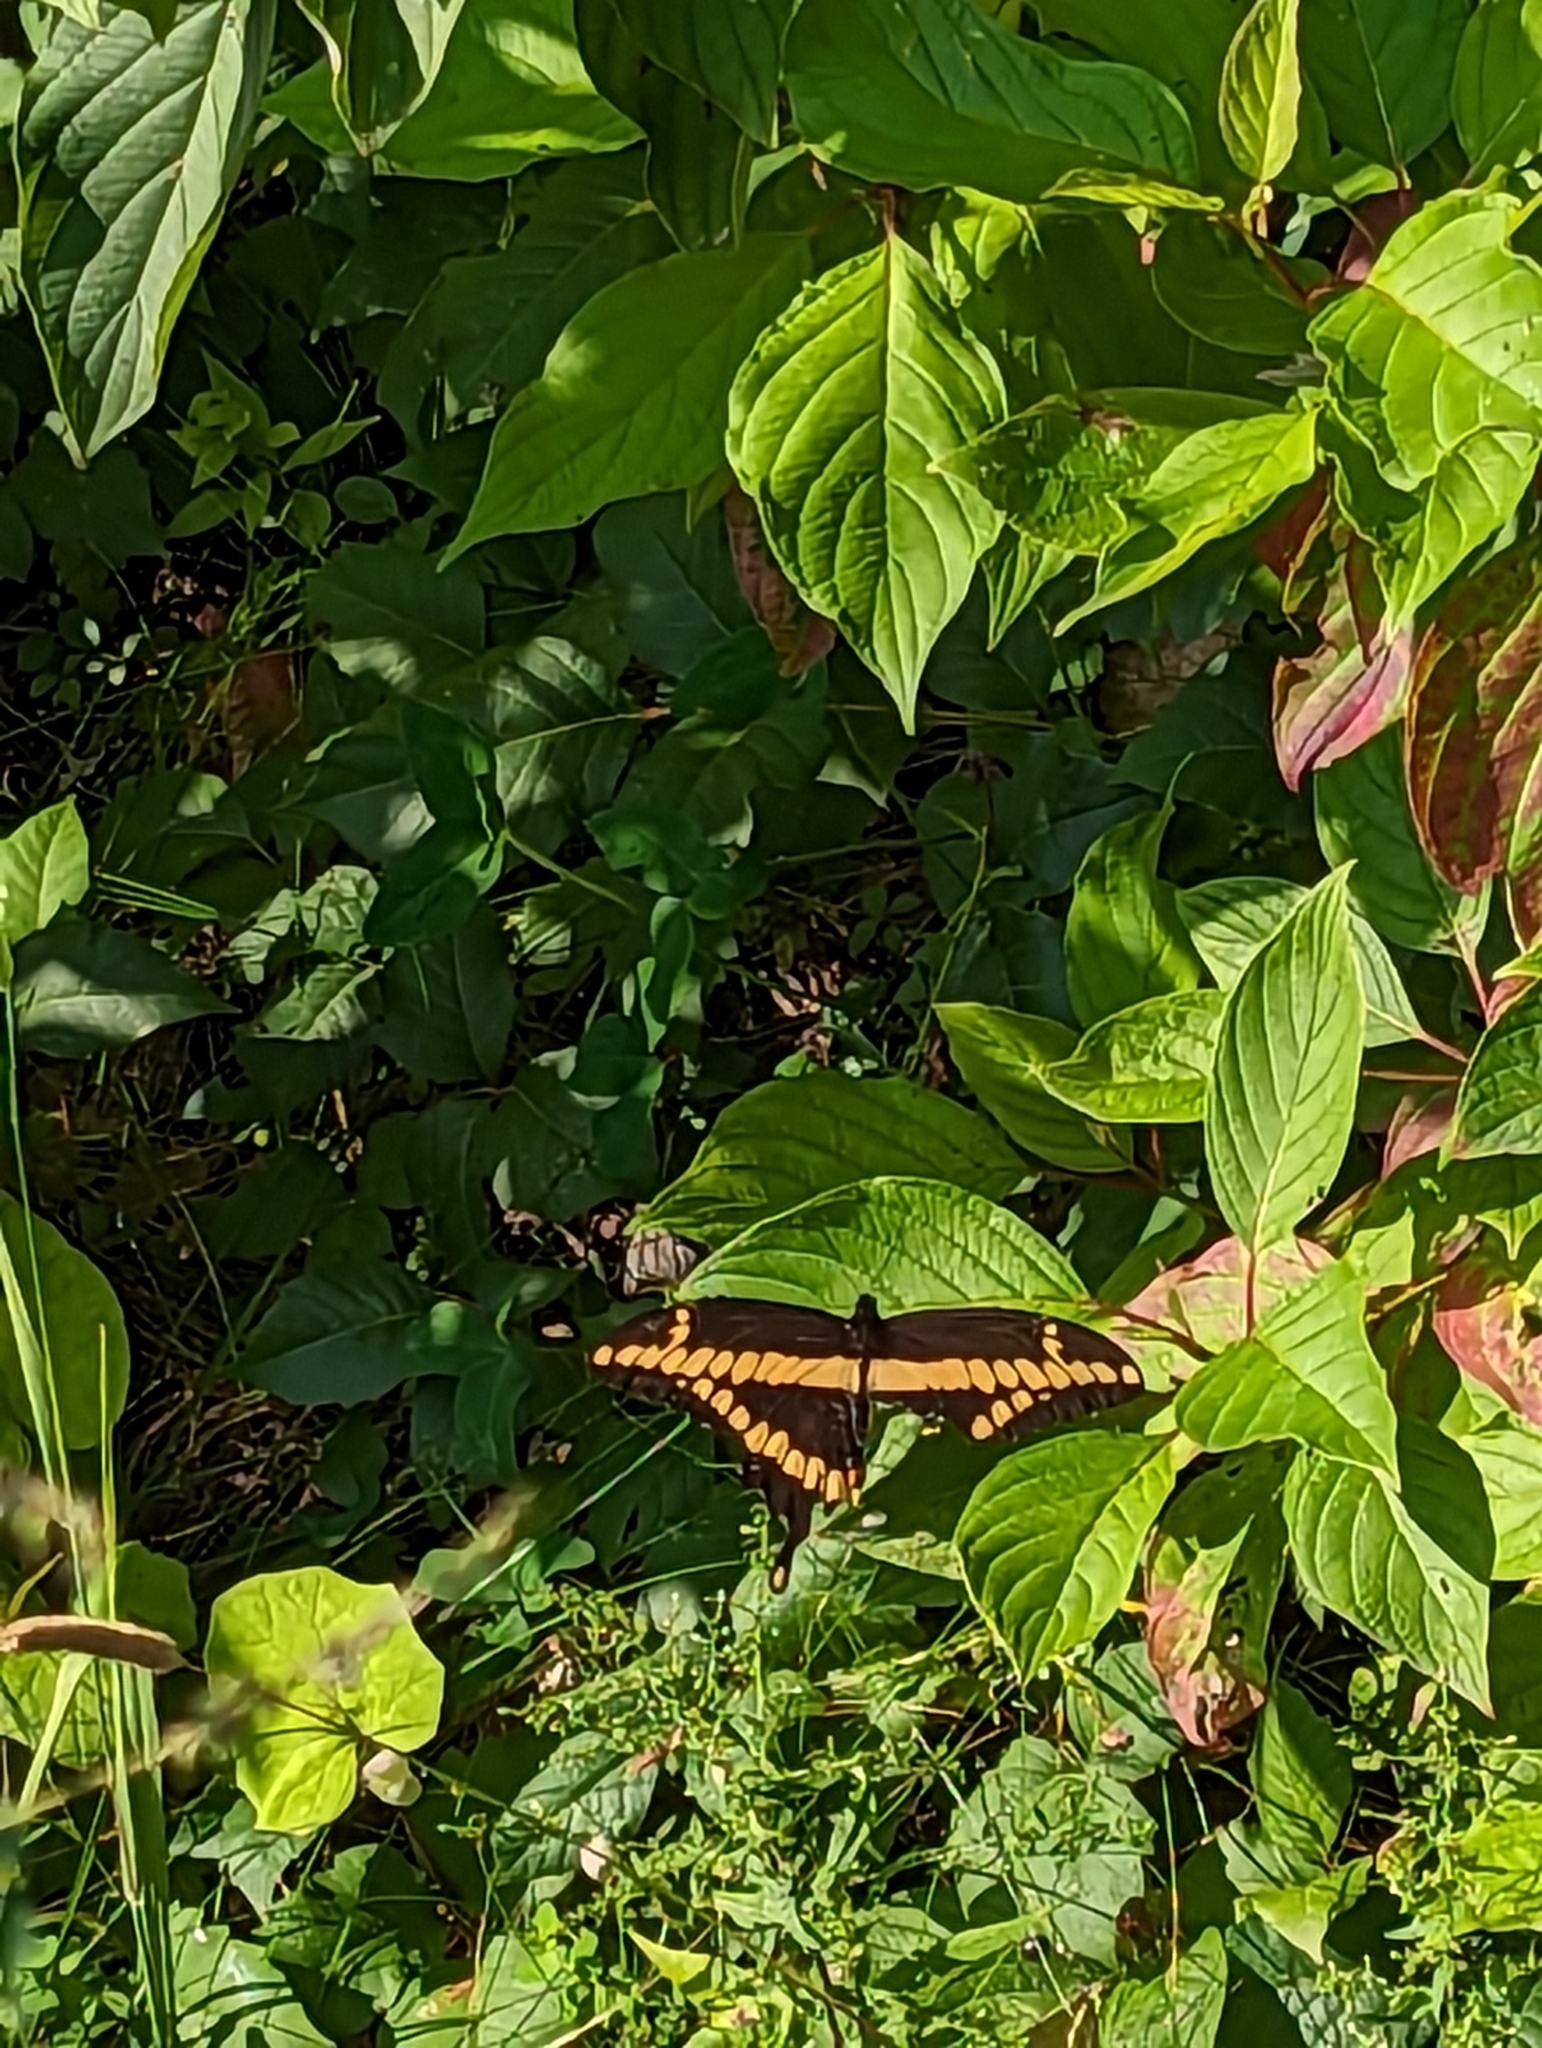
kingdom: Animalia
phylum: Arthropoda
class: Insecta
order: Lepidoptera
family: Papilionidae
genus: Papilio
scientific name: Papilio cresphontes
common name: Giant swallowtail
